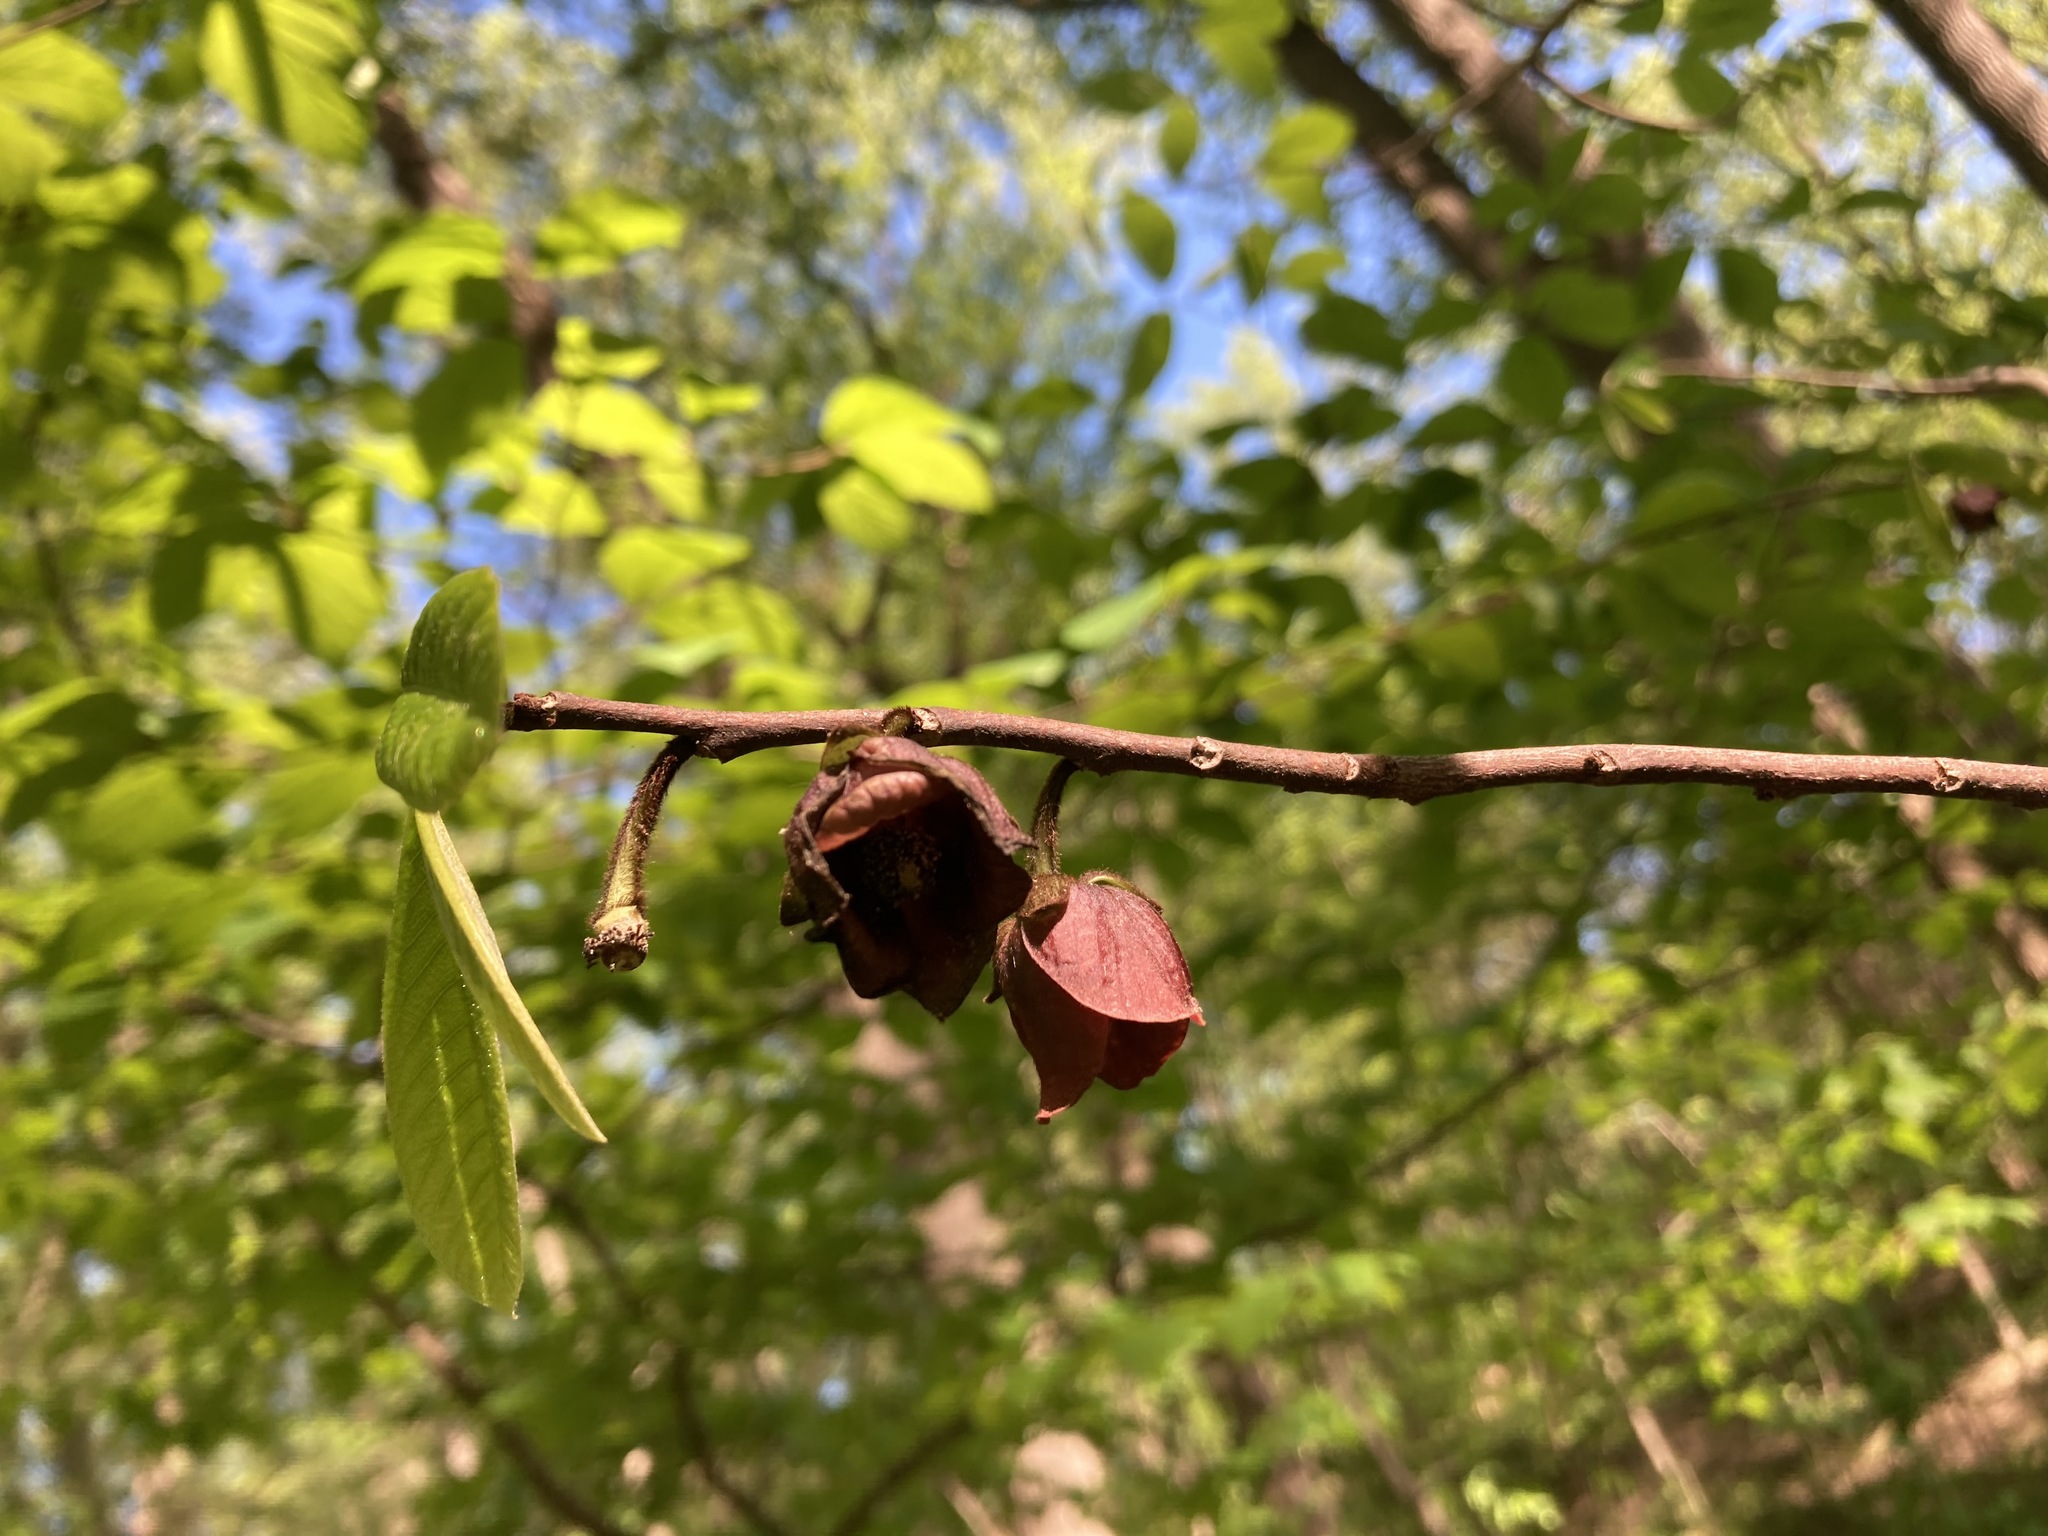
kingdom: Plantae
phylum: Tracheophyta
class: Magnoliopsida
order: Magnoliales
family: Annonaceae
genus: Asimina
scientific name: Asimina triloba
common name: Dog-banana
